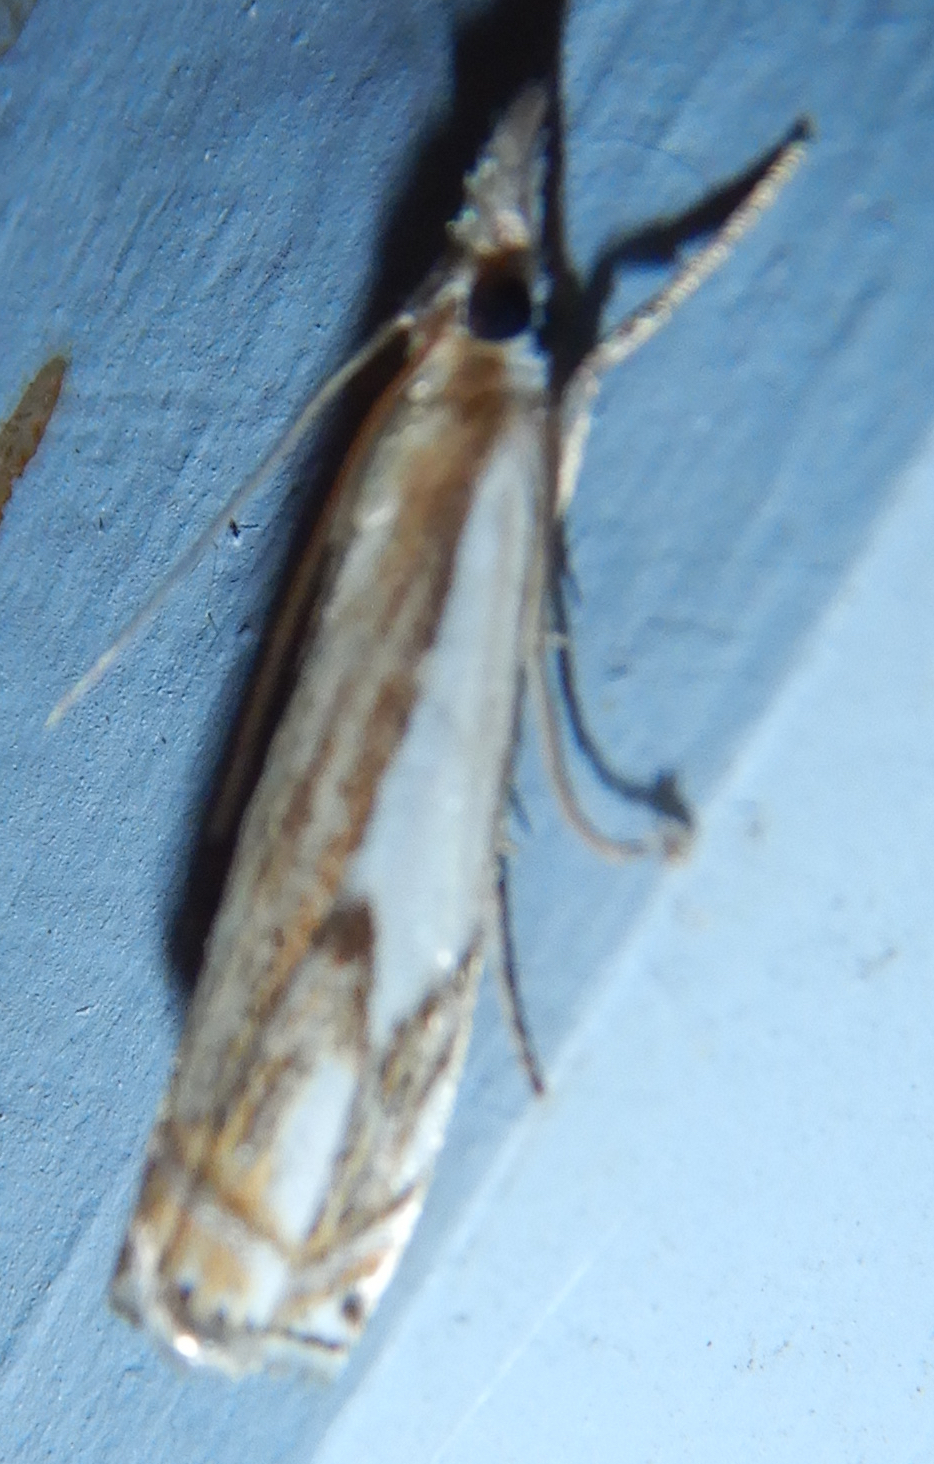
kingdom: Animalia
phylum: Arthropoda
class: Insecta
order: Lepidoptera
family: Crambidae
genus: Crambus
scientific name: Crambus agitatellus
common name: Double-banded grass-veneer
